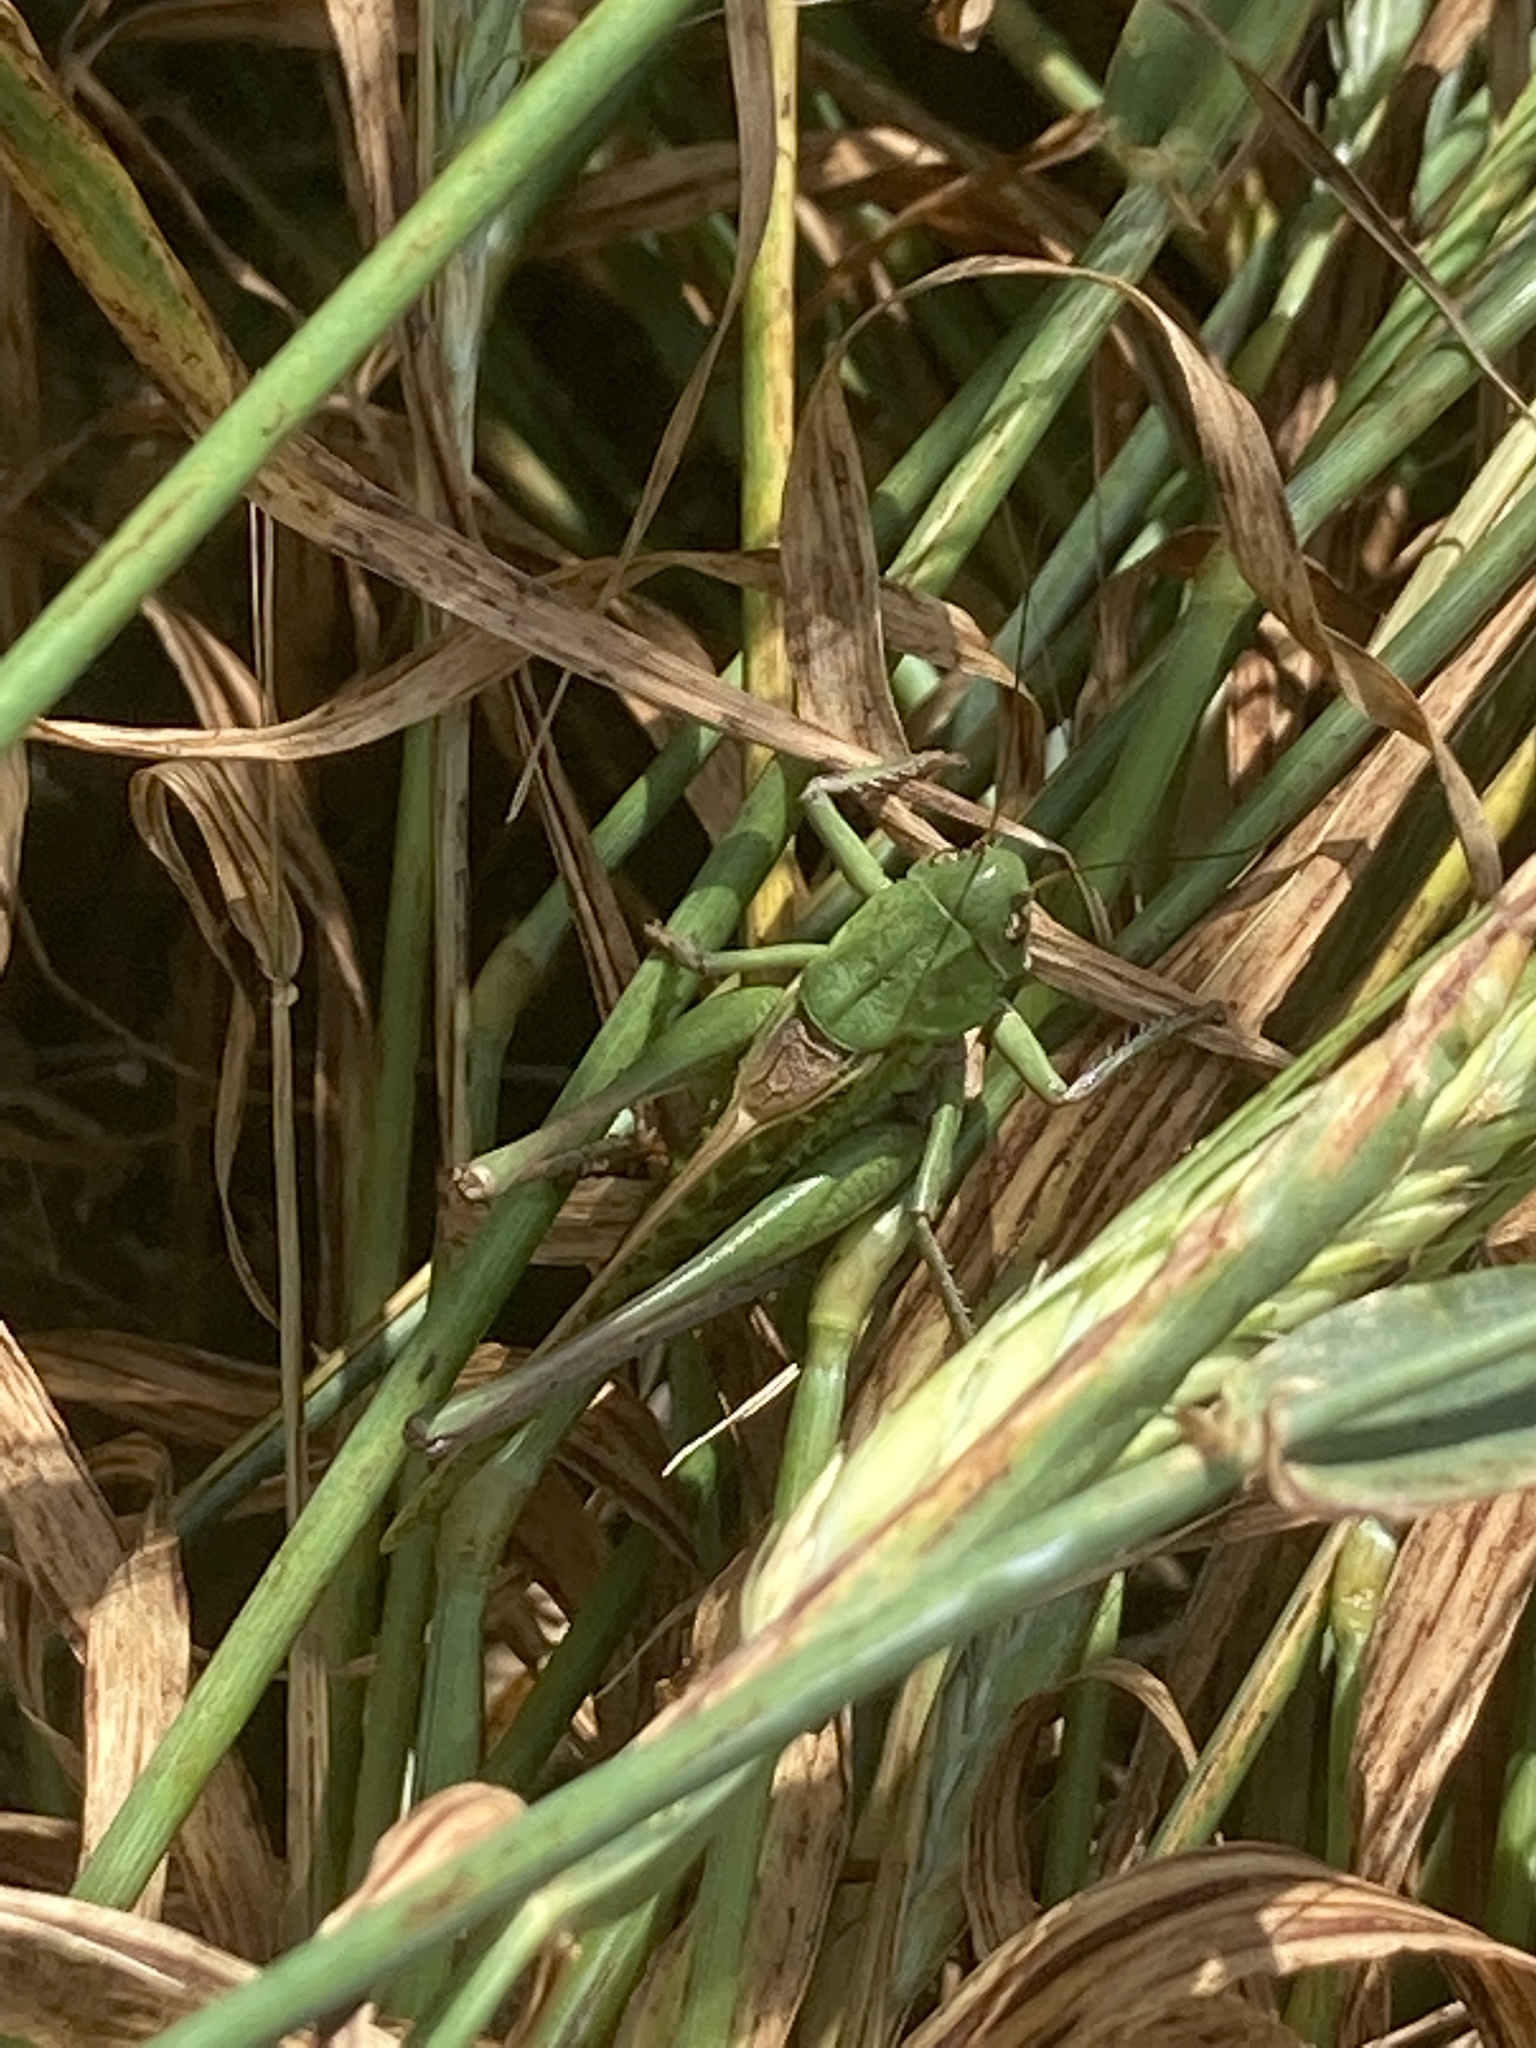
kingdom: Animalia
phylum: Arthropoda
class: Insecta
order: Orthoptera
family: Tettigoniidae
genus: Decticus
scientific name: Decticus verrucivorus
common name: Wart-biter
